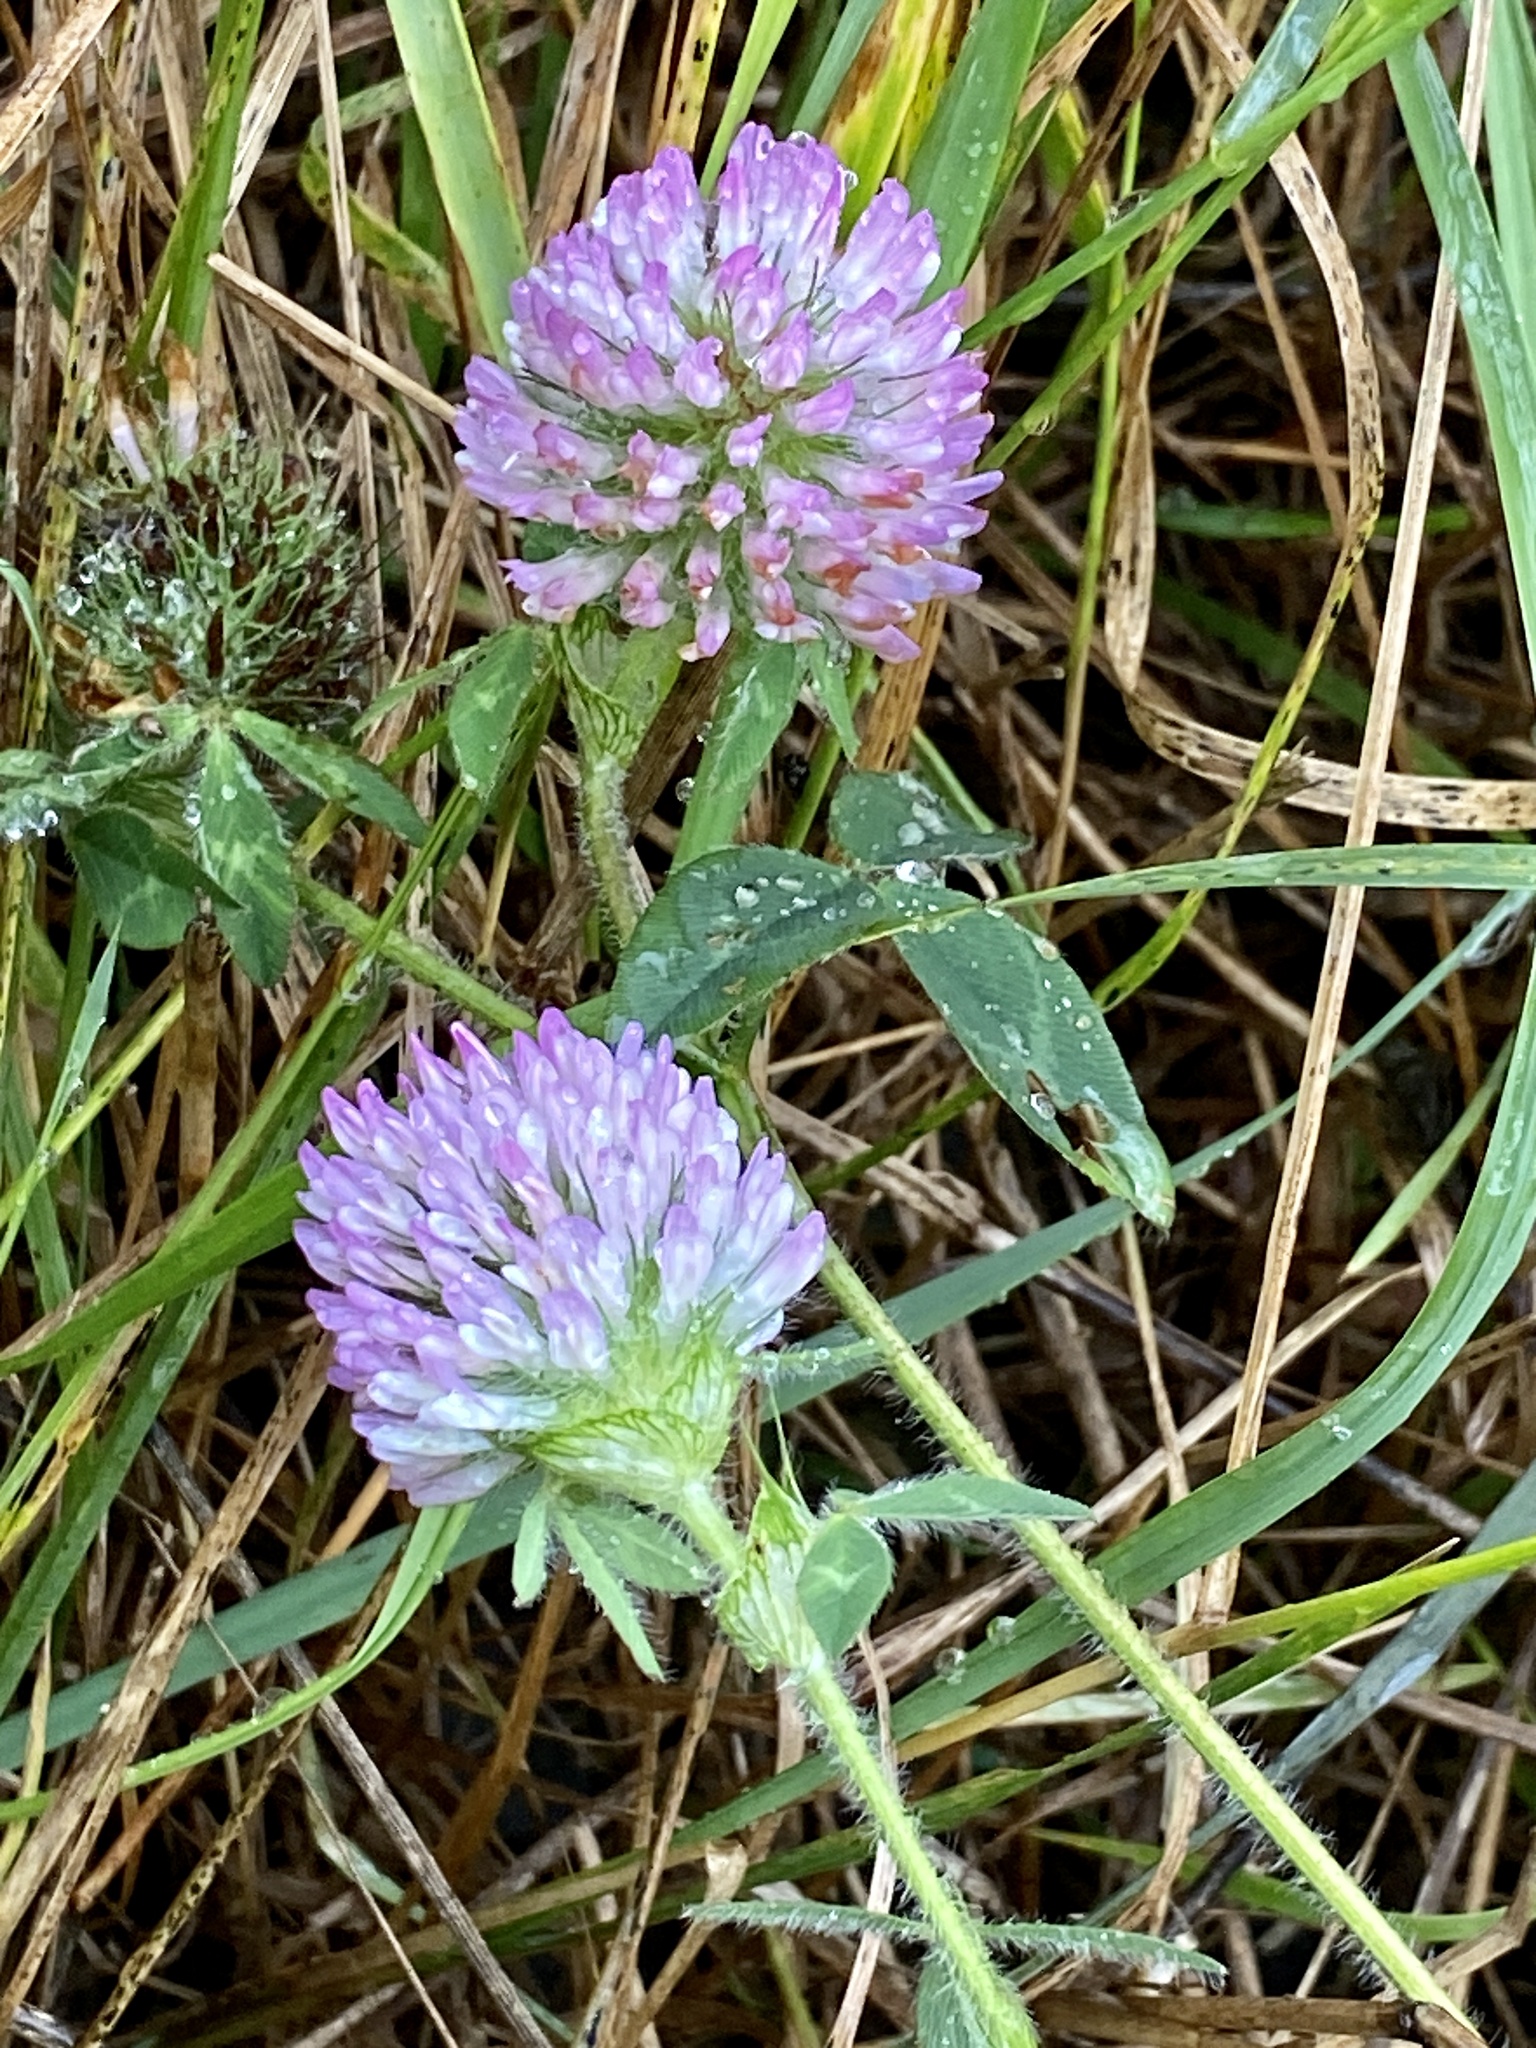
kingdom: Plantae
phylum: Tracheophyta
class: Magnoliopsida
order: Fabales
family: Fabaceae
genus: Trifolium
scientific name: Trifolium pratense
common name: Red clover
